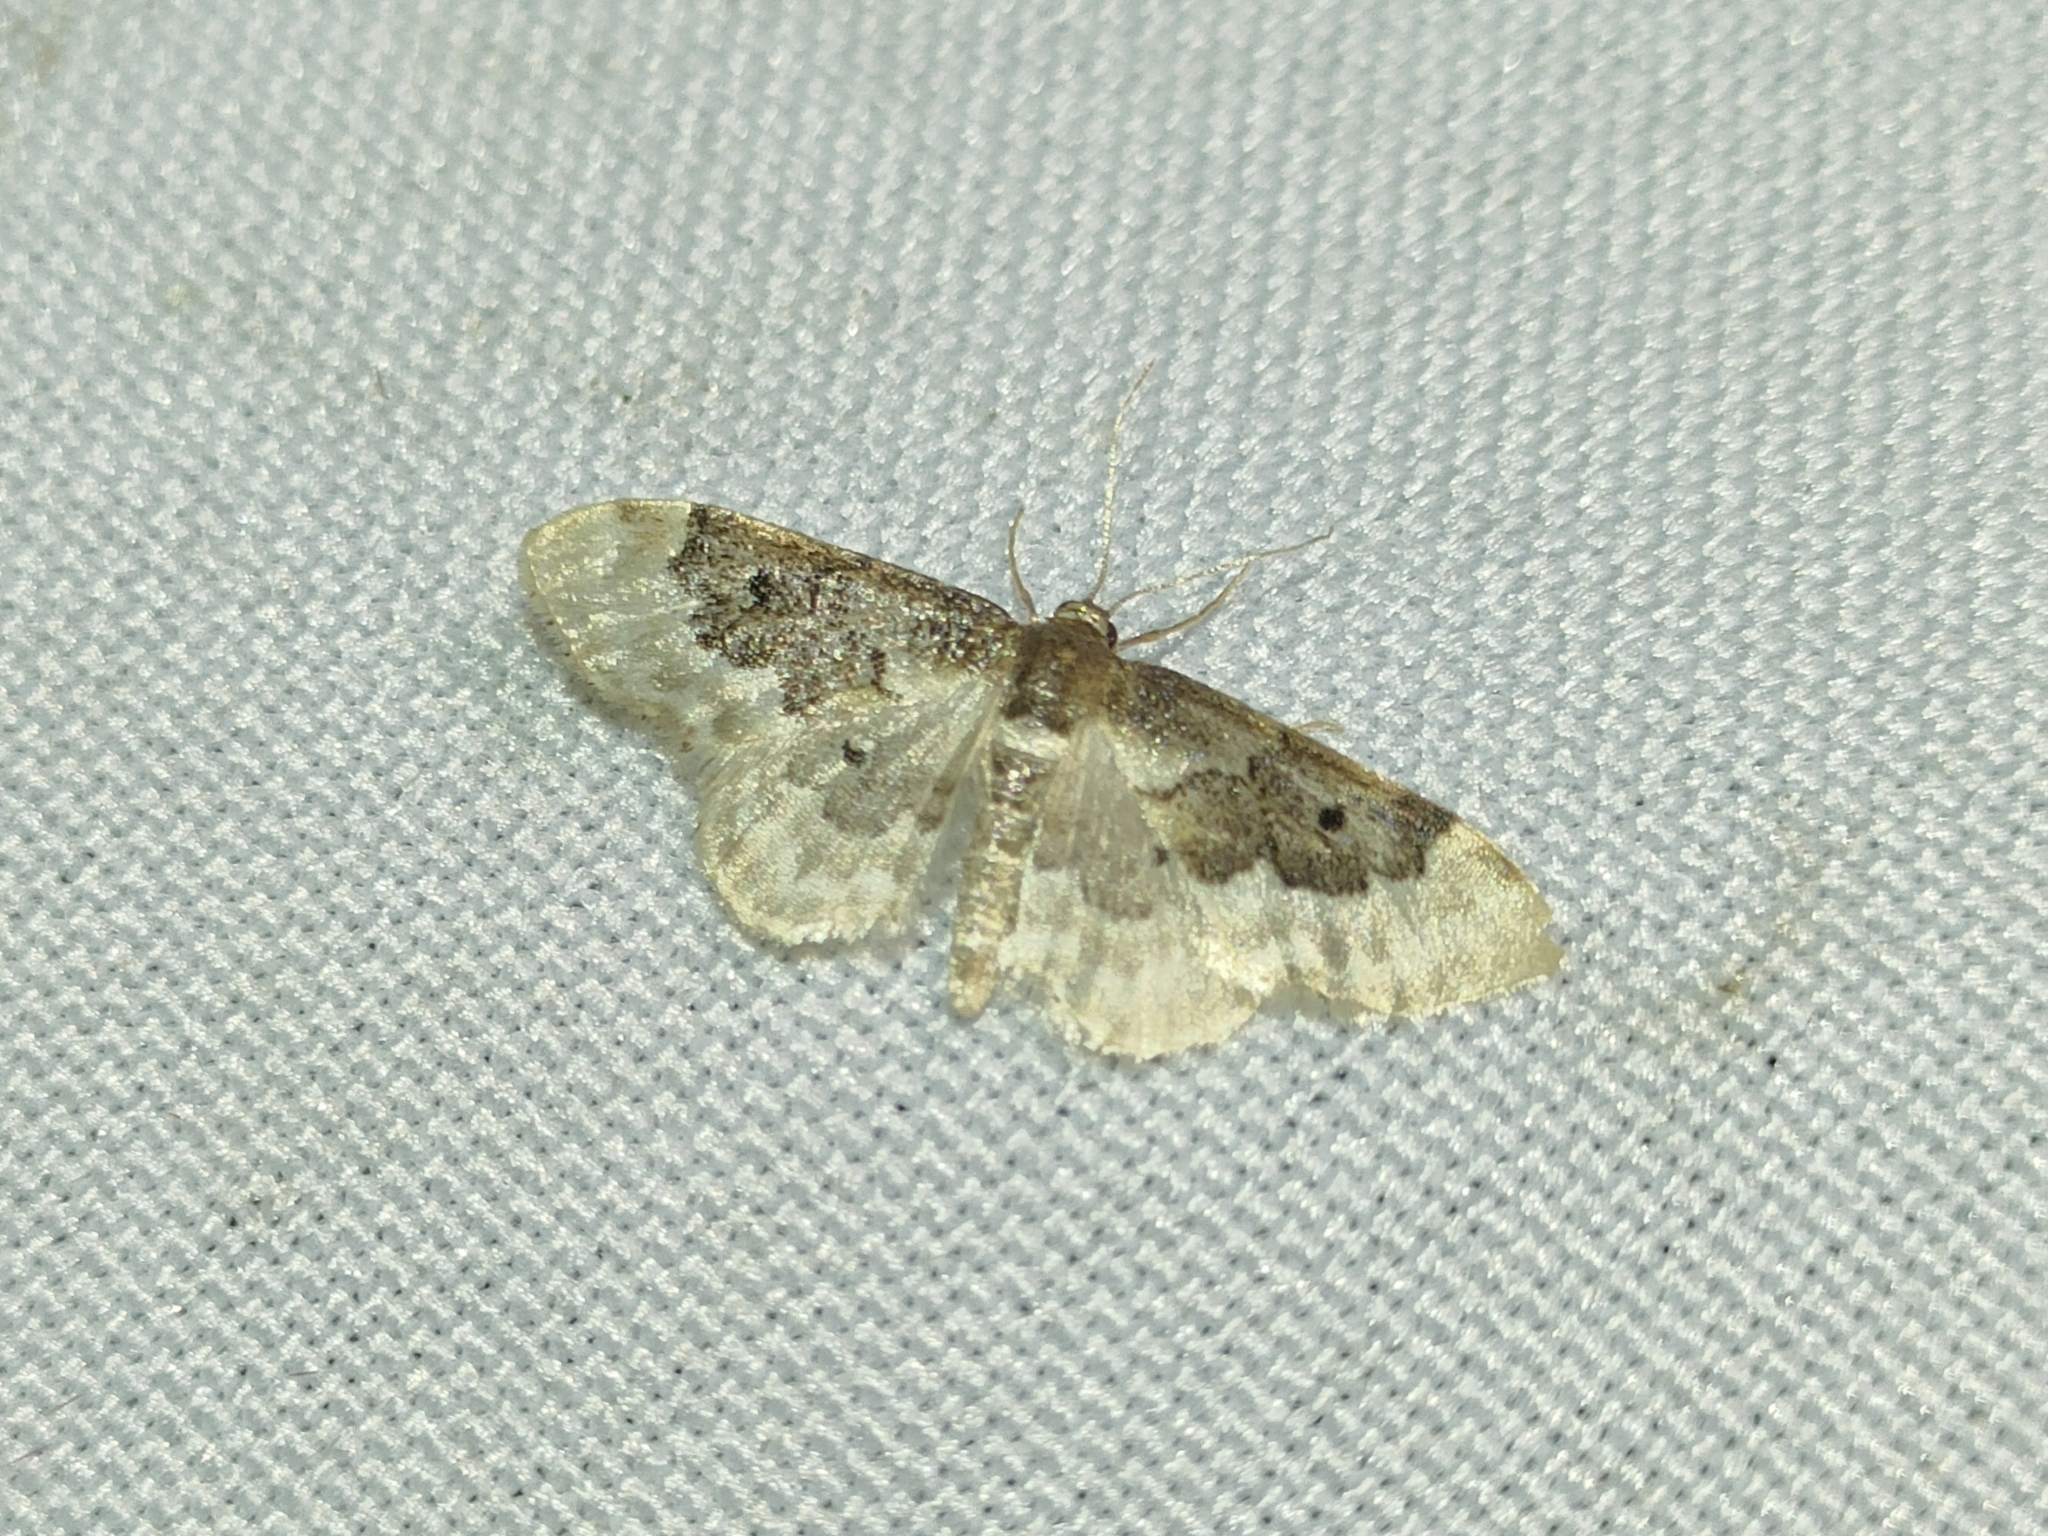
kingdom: Animalia
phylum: Arthropoda
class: Insecta
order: Lepidoptera
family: Geometridae
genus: Idaea
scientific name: Idaea rusticata
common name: Least carpet
